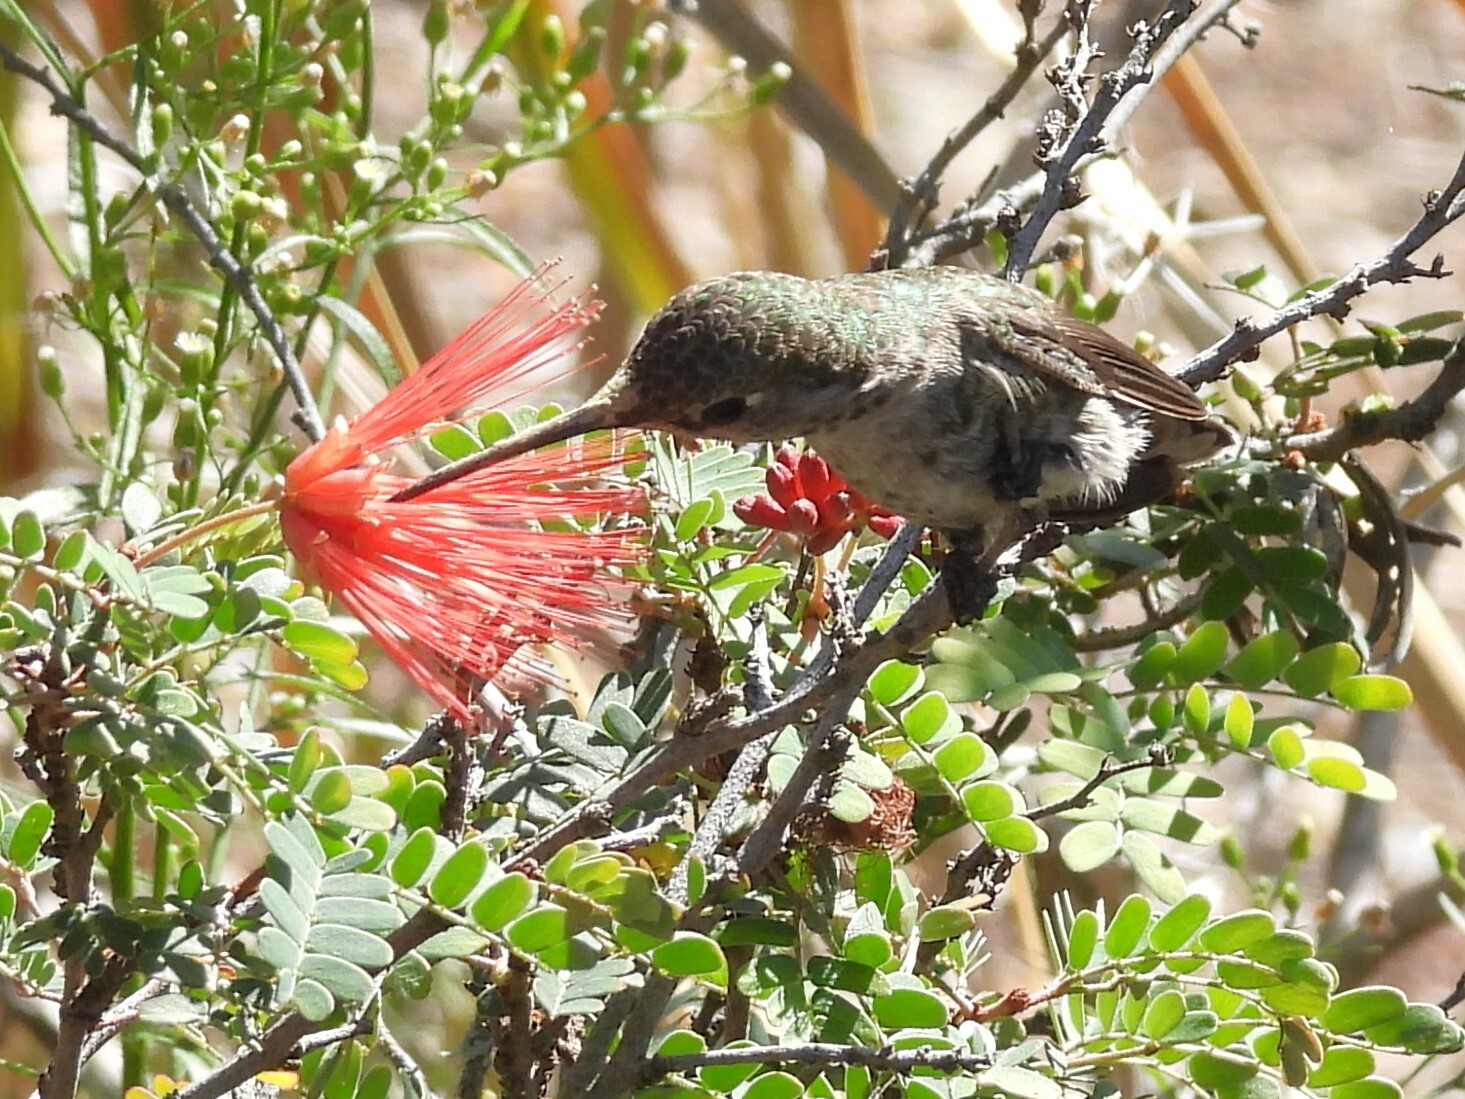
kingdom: Animalia
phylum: Chordata
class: Aves
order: Apodiformes
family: Trochilidae
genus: Calypte
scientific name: Calypte anna
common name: Anna's hummingbird
